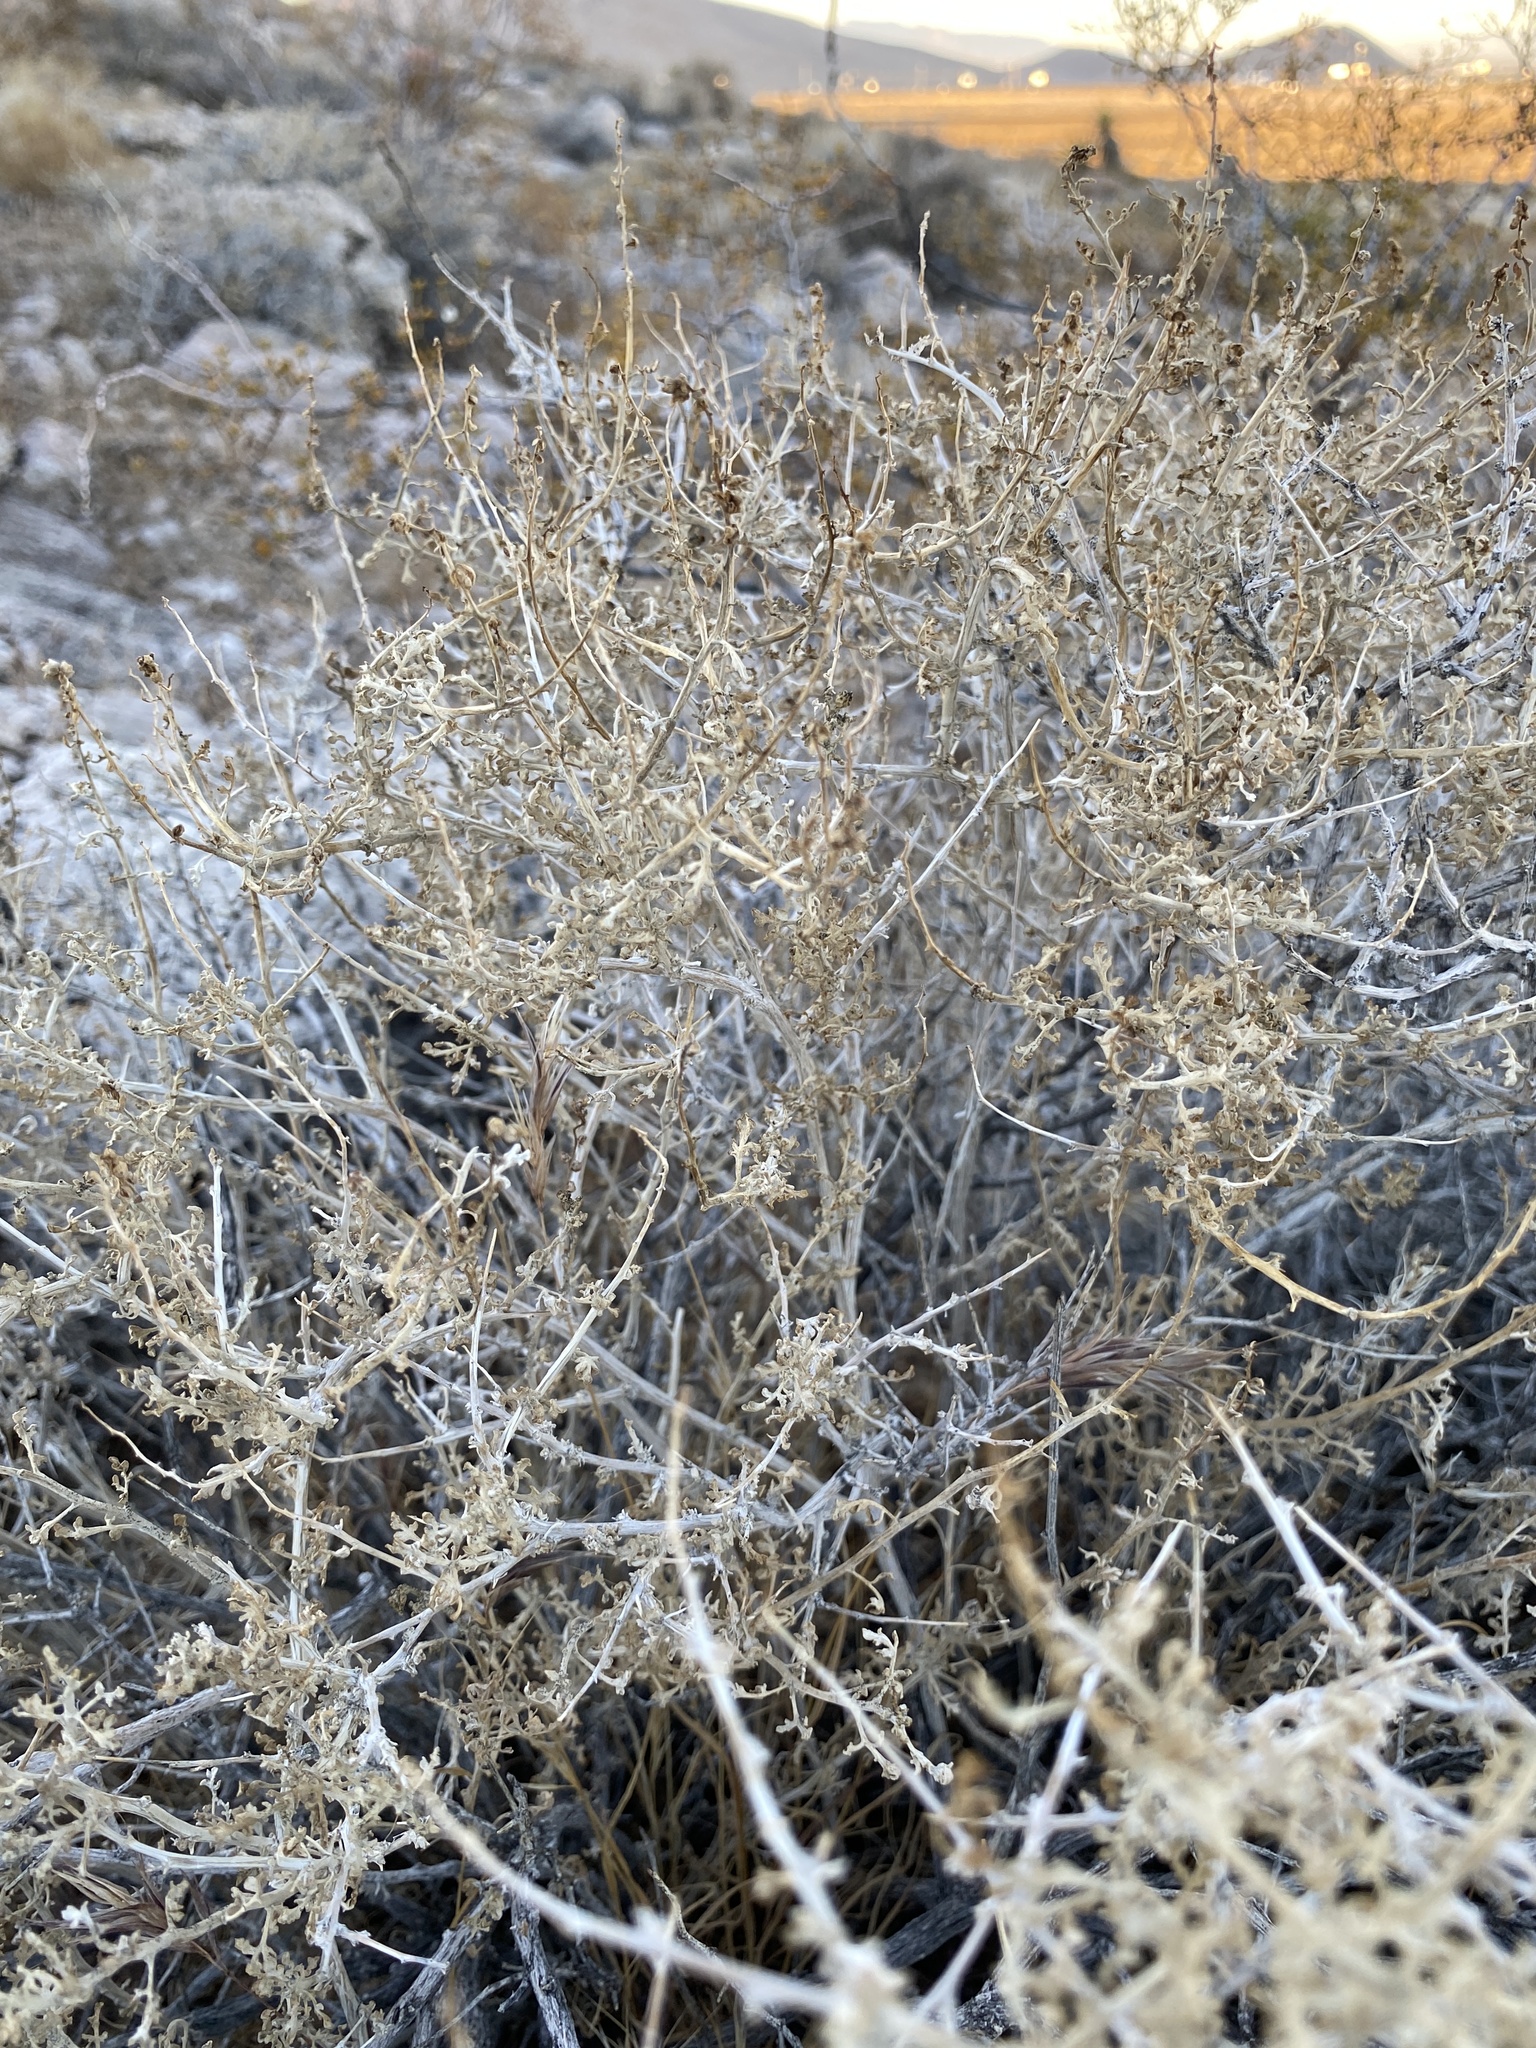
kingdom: Plantae
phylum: Tracheophyta
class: Magnoliopsida
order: Asterales
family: Asteraceae
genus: Ambrosia
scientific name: Ambrosia dumosa
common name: Bur-sage
